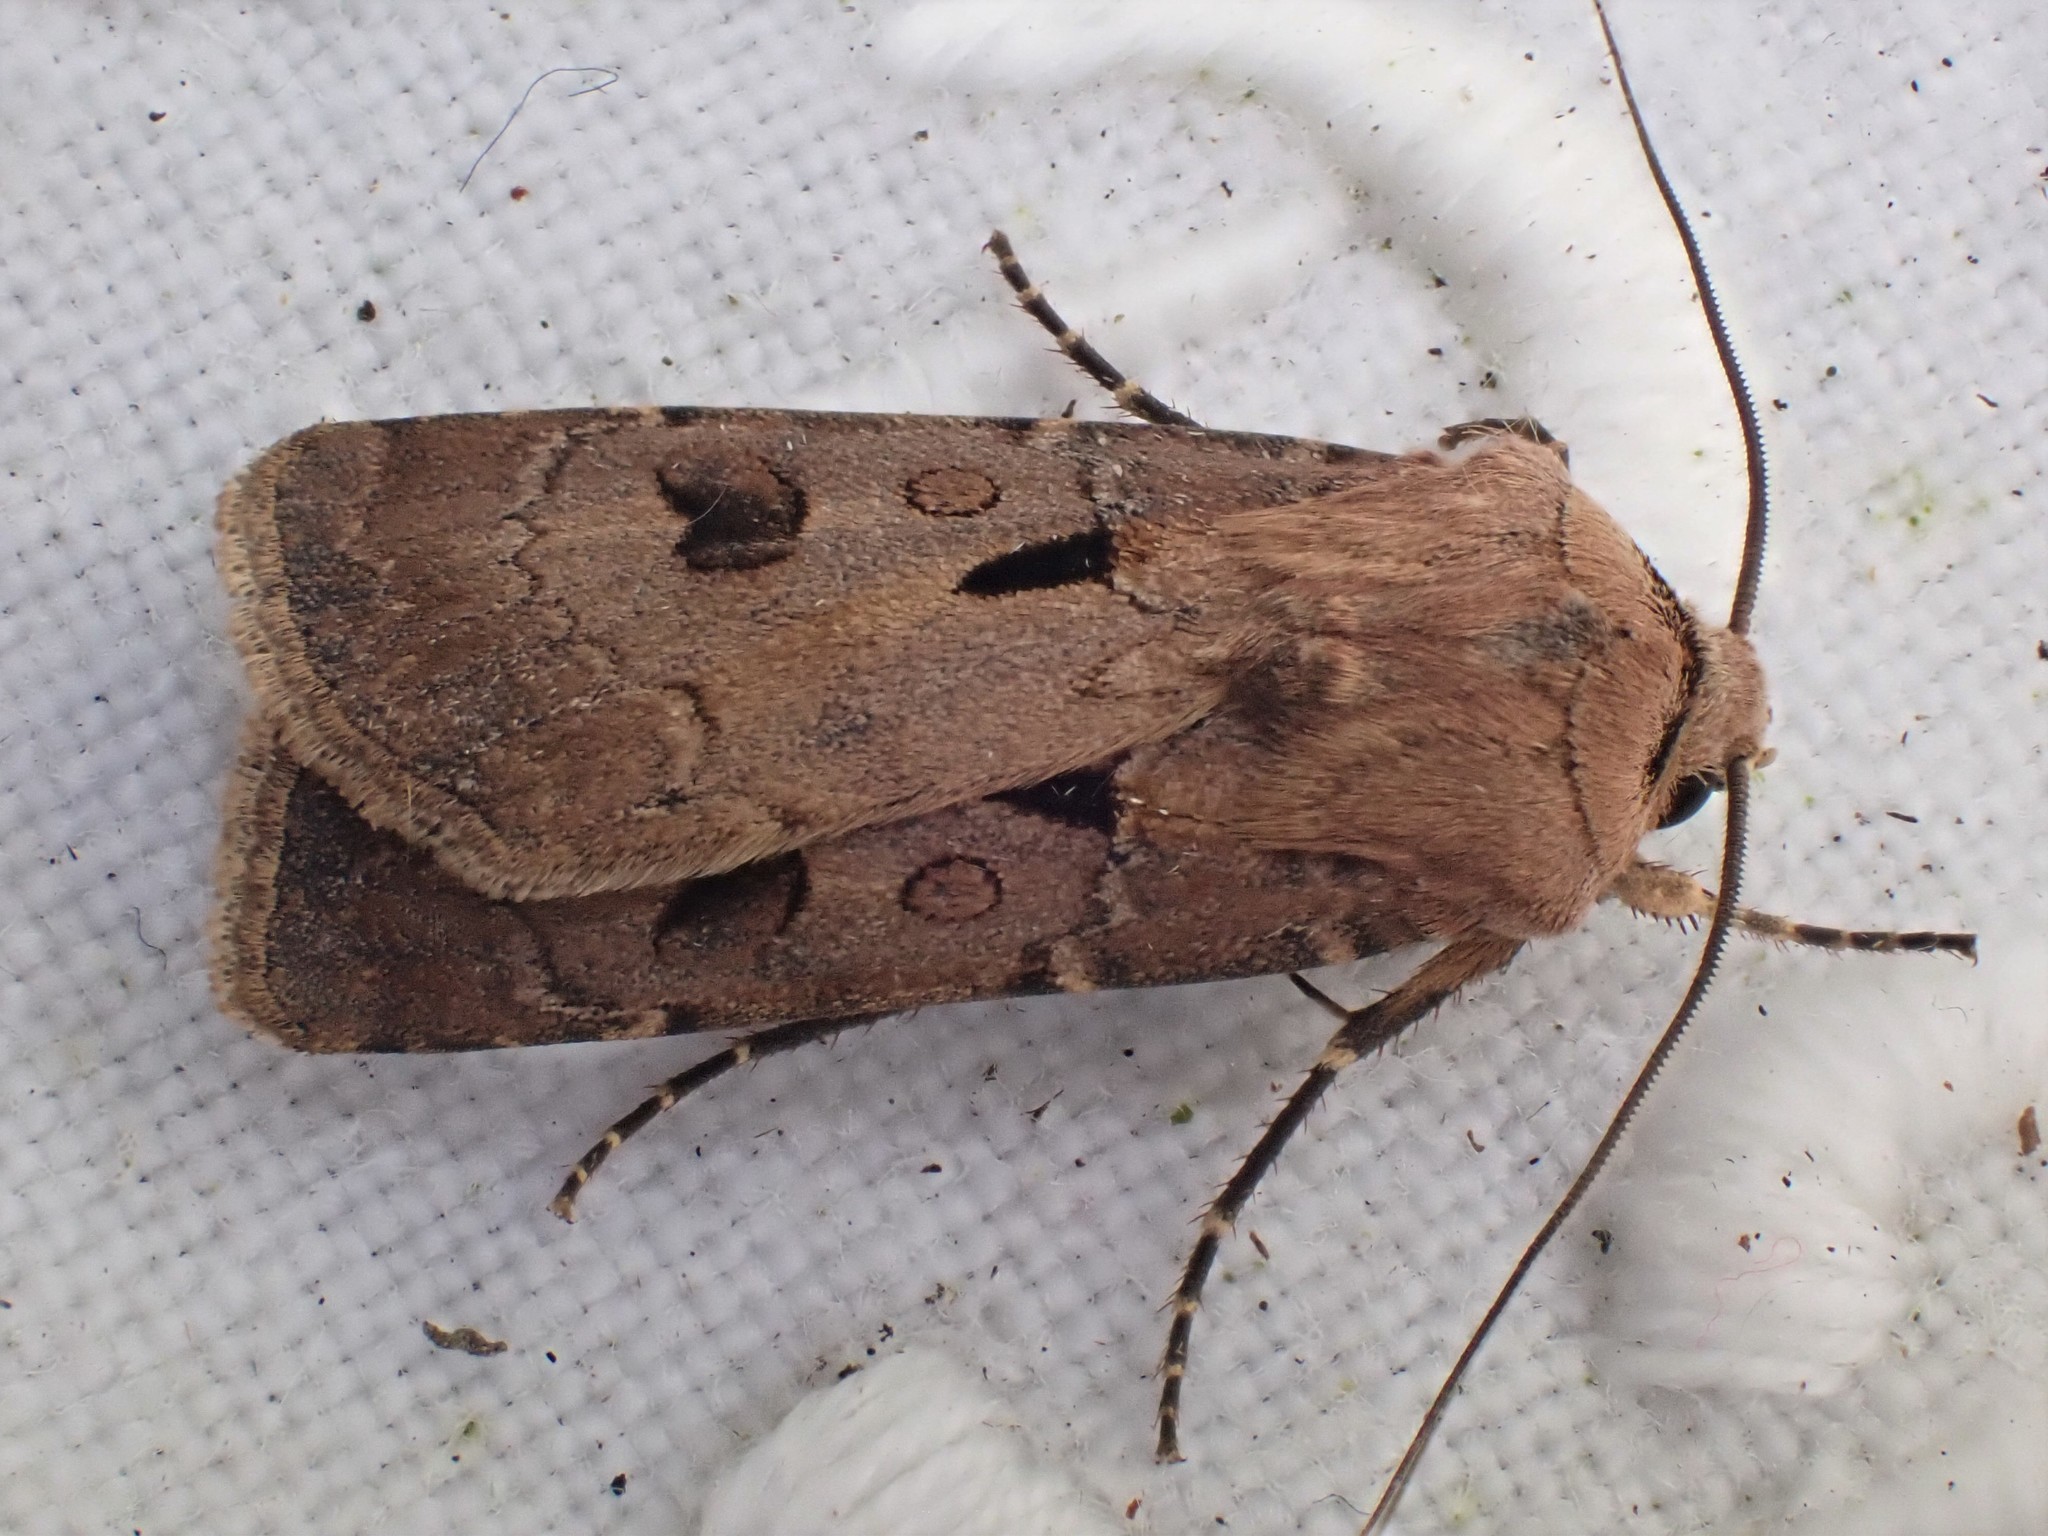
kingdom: Animalia
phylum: Arthropoda
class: Insecta
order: Lepidoptera
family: Noctuidae
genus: Agrotis
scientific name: Agrotis exclamationis
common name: Heart and dart
